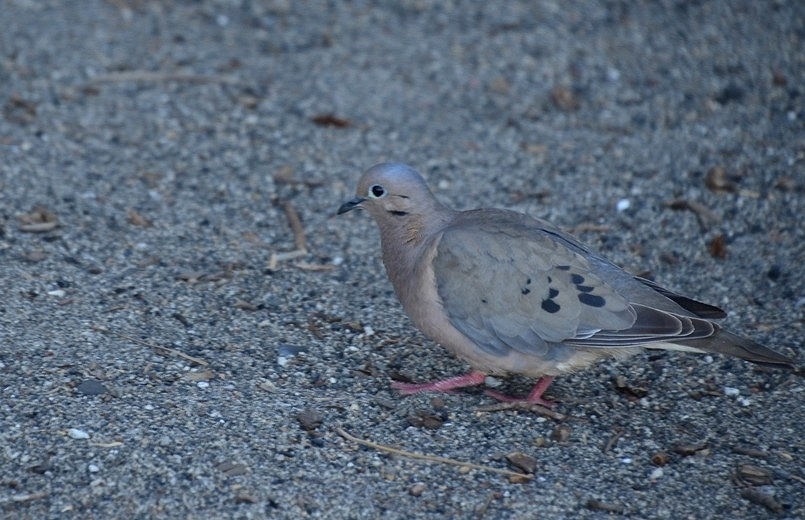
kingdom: Animalia
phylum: Chordata
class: Aves
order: Columbiformes
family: Columbidae
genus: Zenaida
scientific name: Zenaida auriculata
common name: Eared dove
